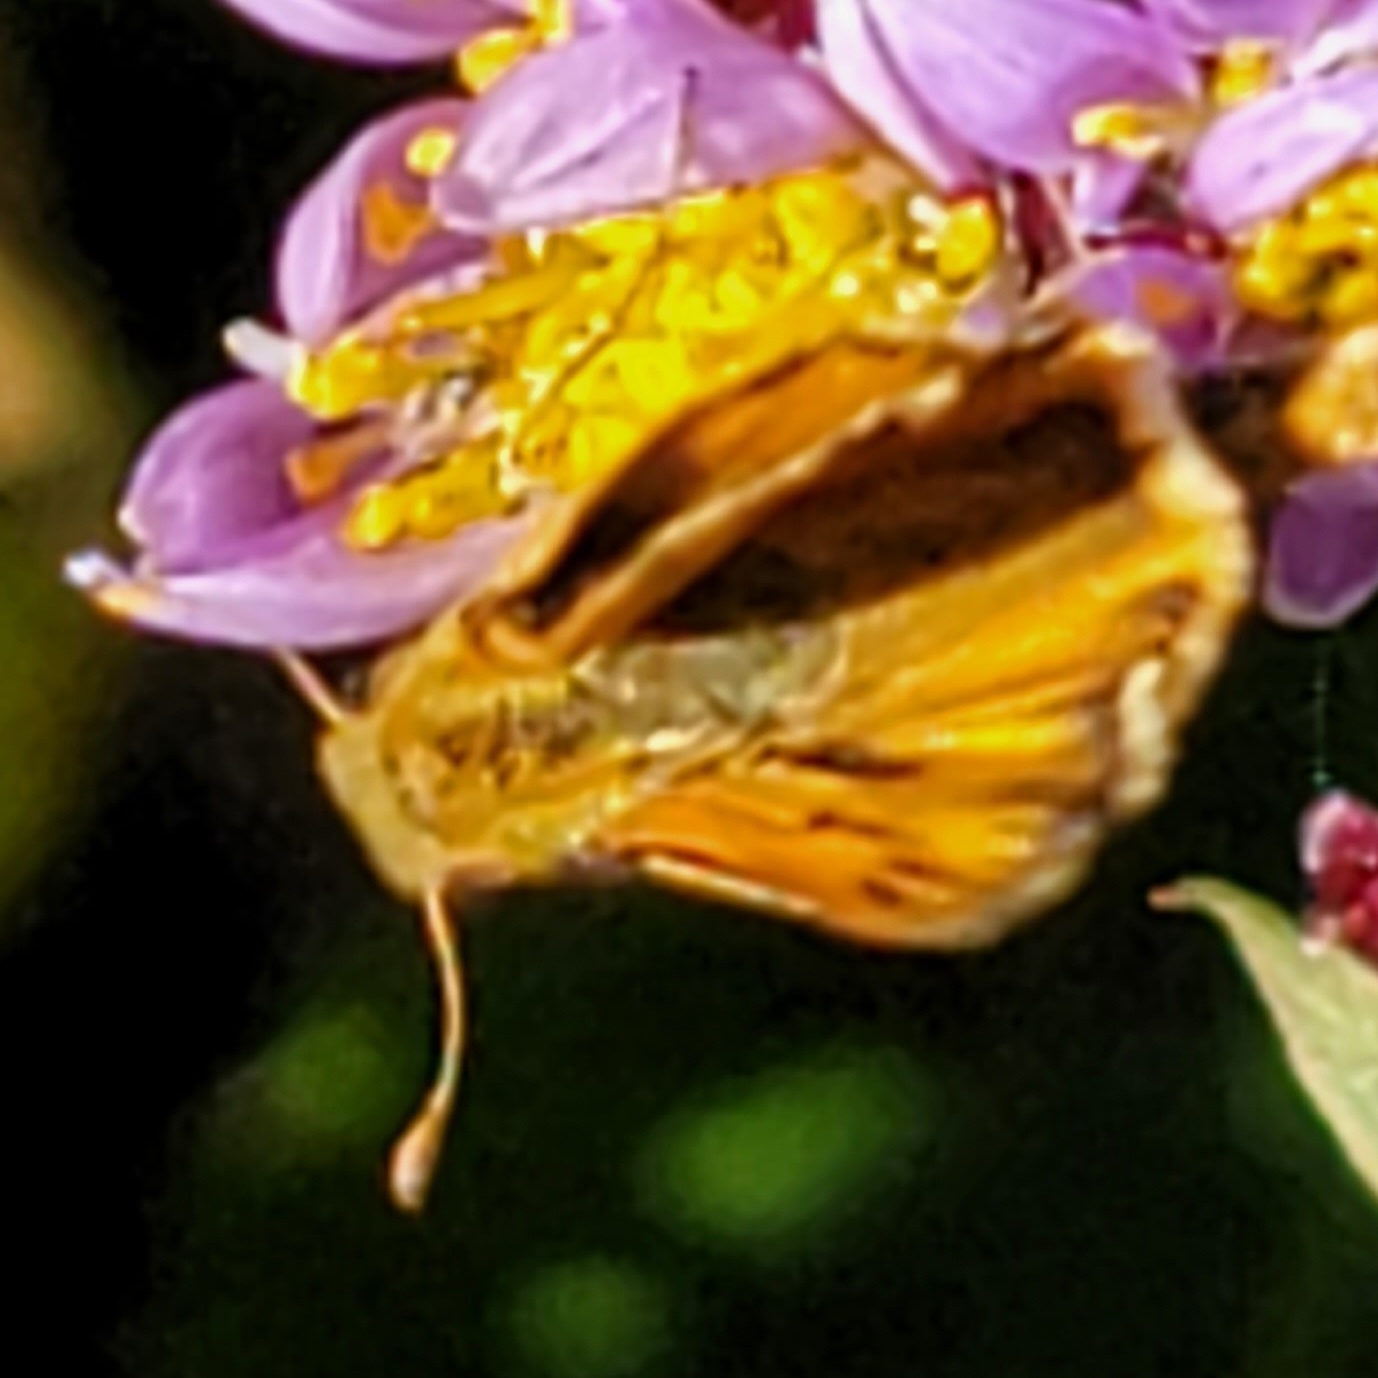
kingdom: Animalia
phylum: Arthropoda
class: Insecta
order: Lepidoptera
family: Hesperiidae
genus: Hylephila
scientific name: Hylephila phyleus
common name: Fiery skipper
